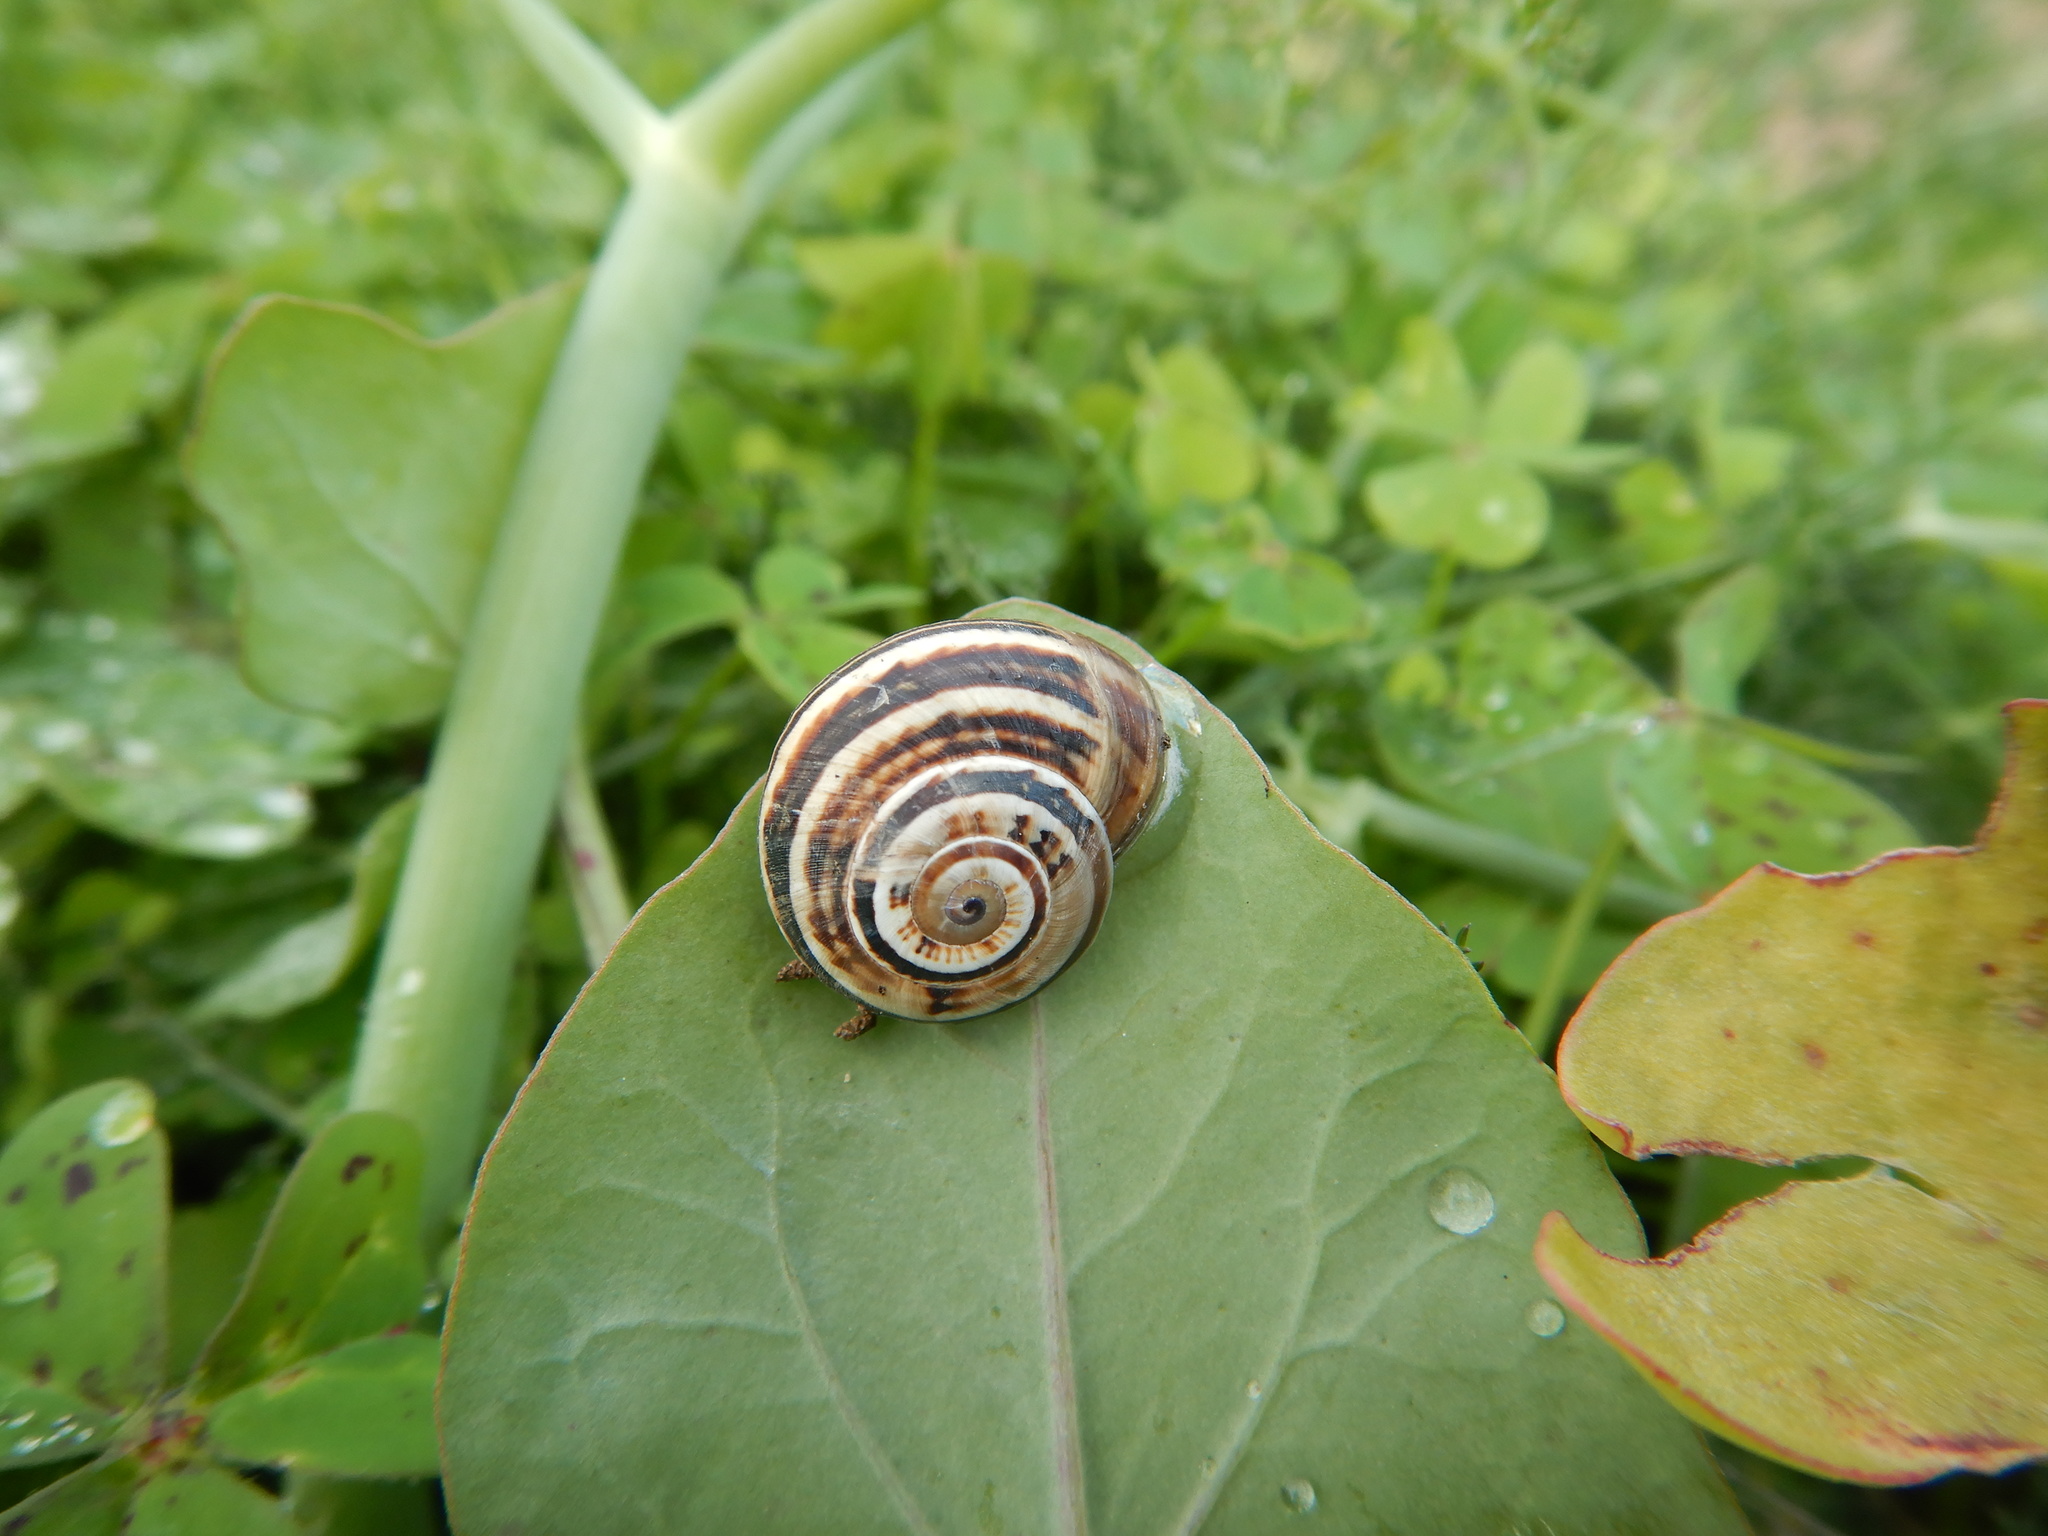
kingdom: Animalia
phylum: Mollusca
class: Gastropoda
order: Stylommatophora
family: Helicidae
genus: Theba
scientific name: Theba pisana
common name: White snail
